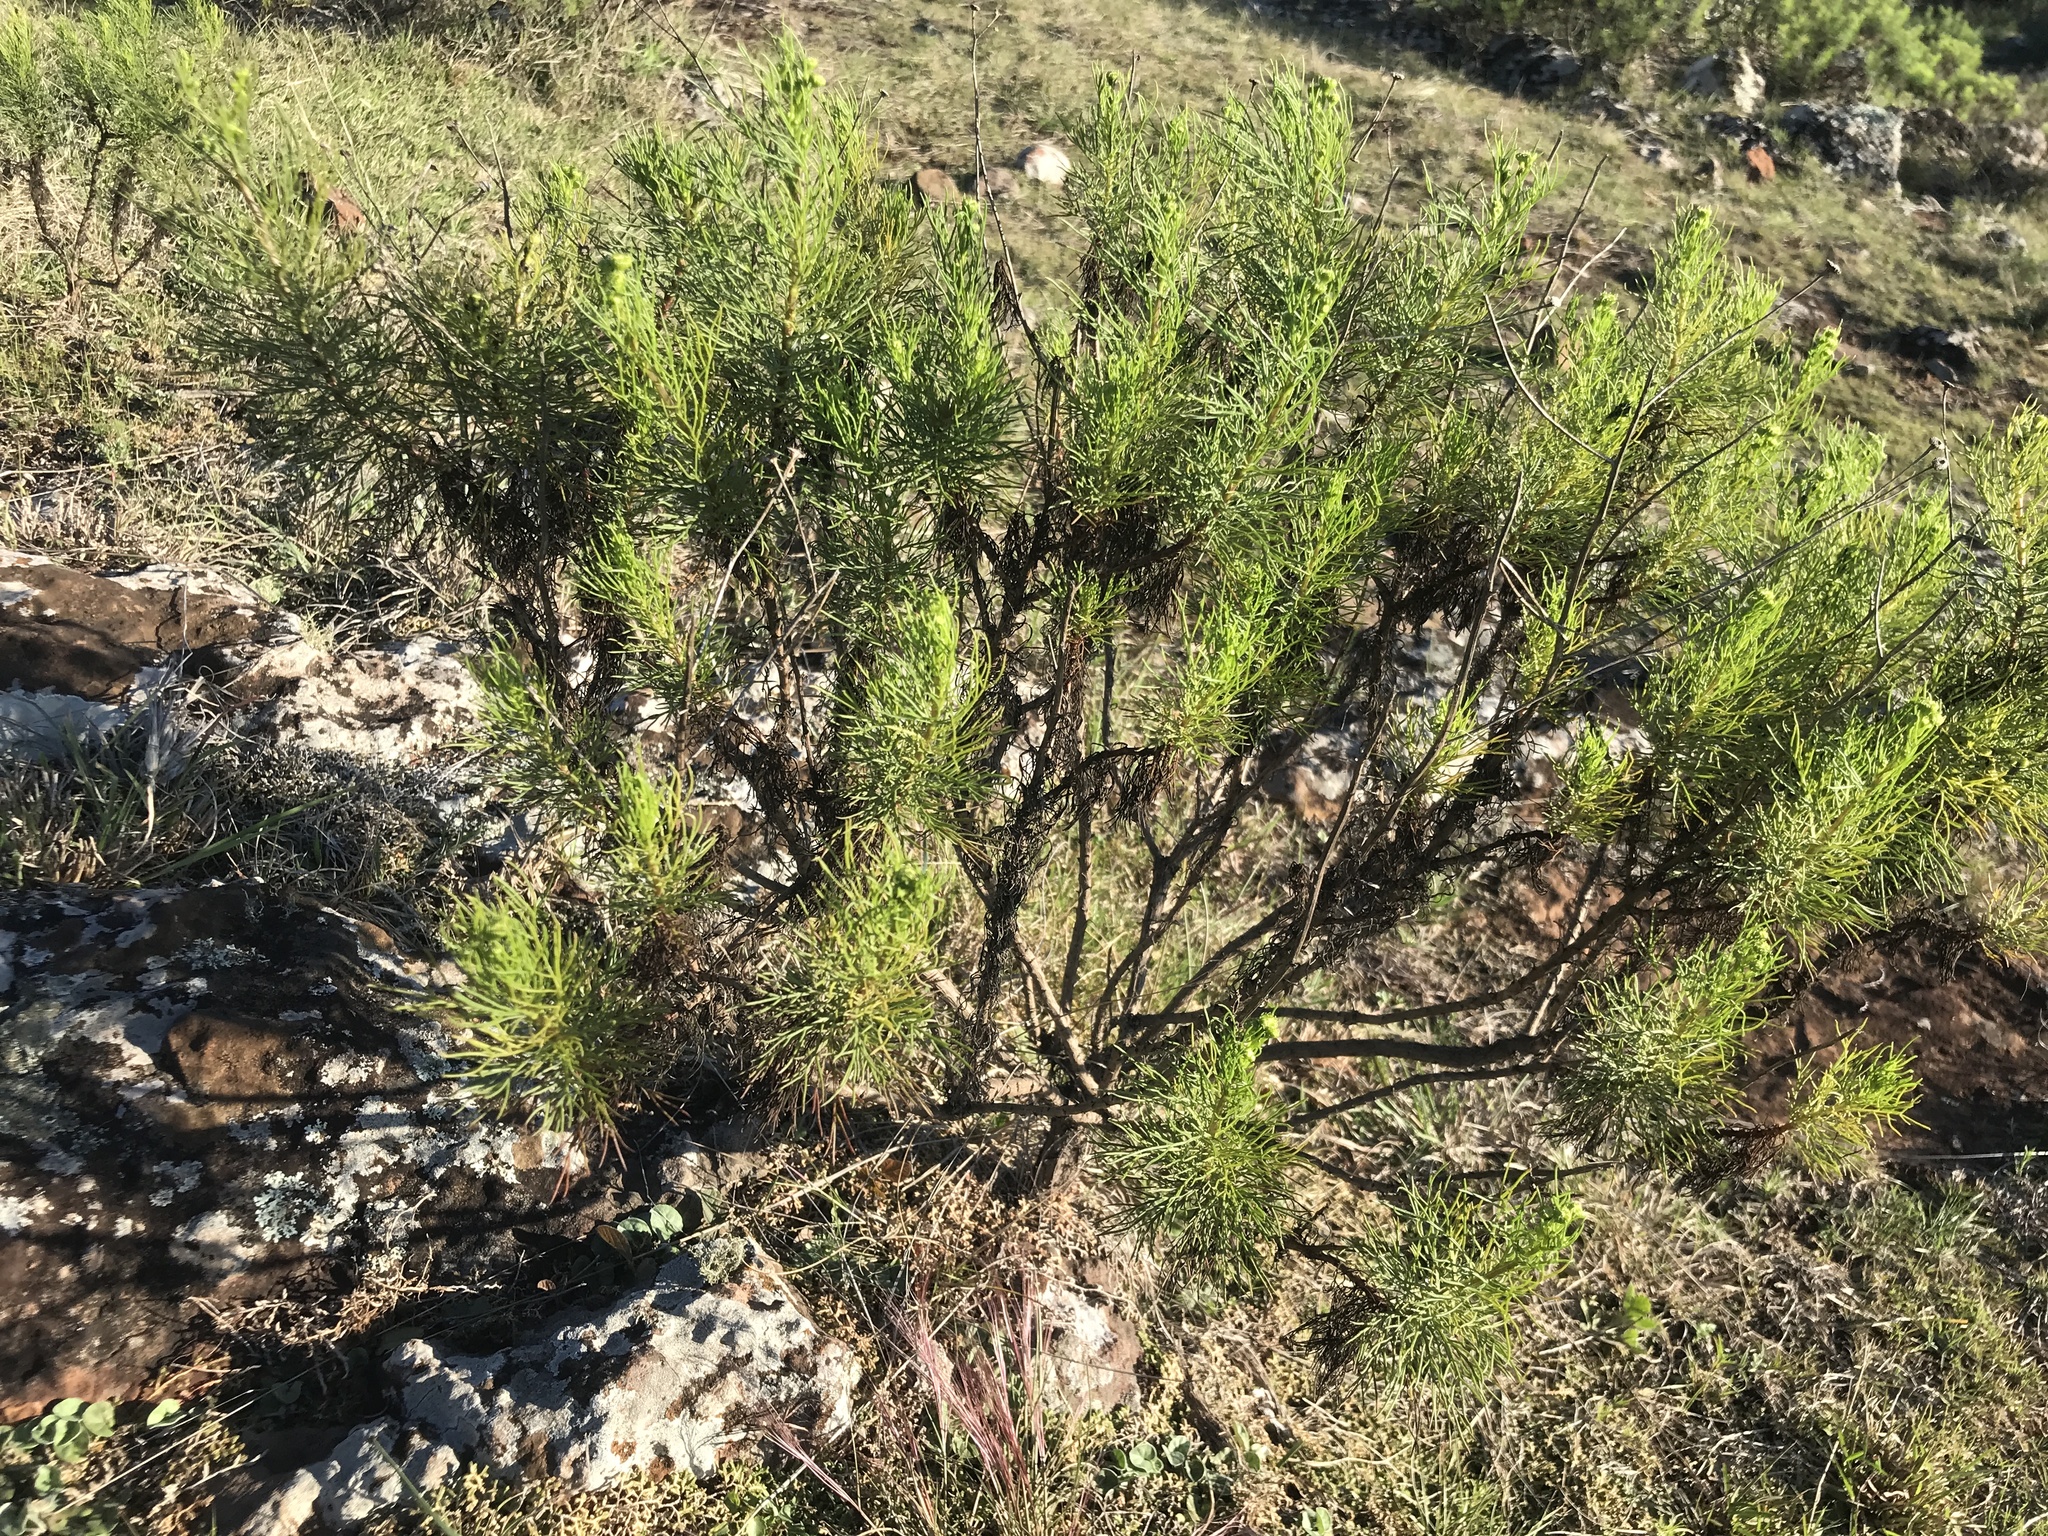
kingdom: Plantae
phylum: Tracheophyta
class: Magnoliopsida
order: Asterales
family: Asteraceae
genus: Senecio
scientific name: Senecio pinnatus
